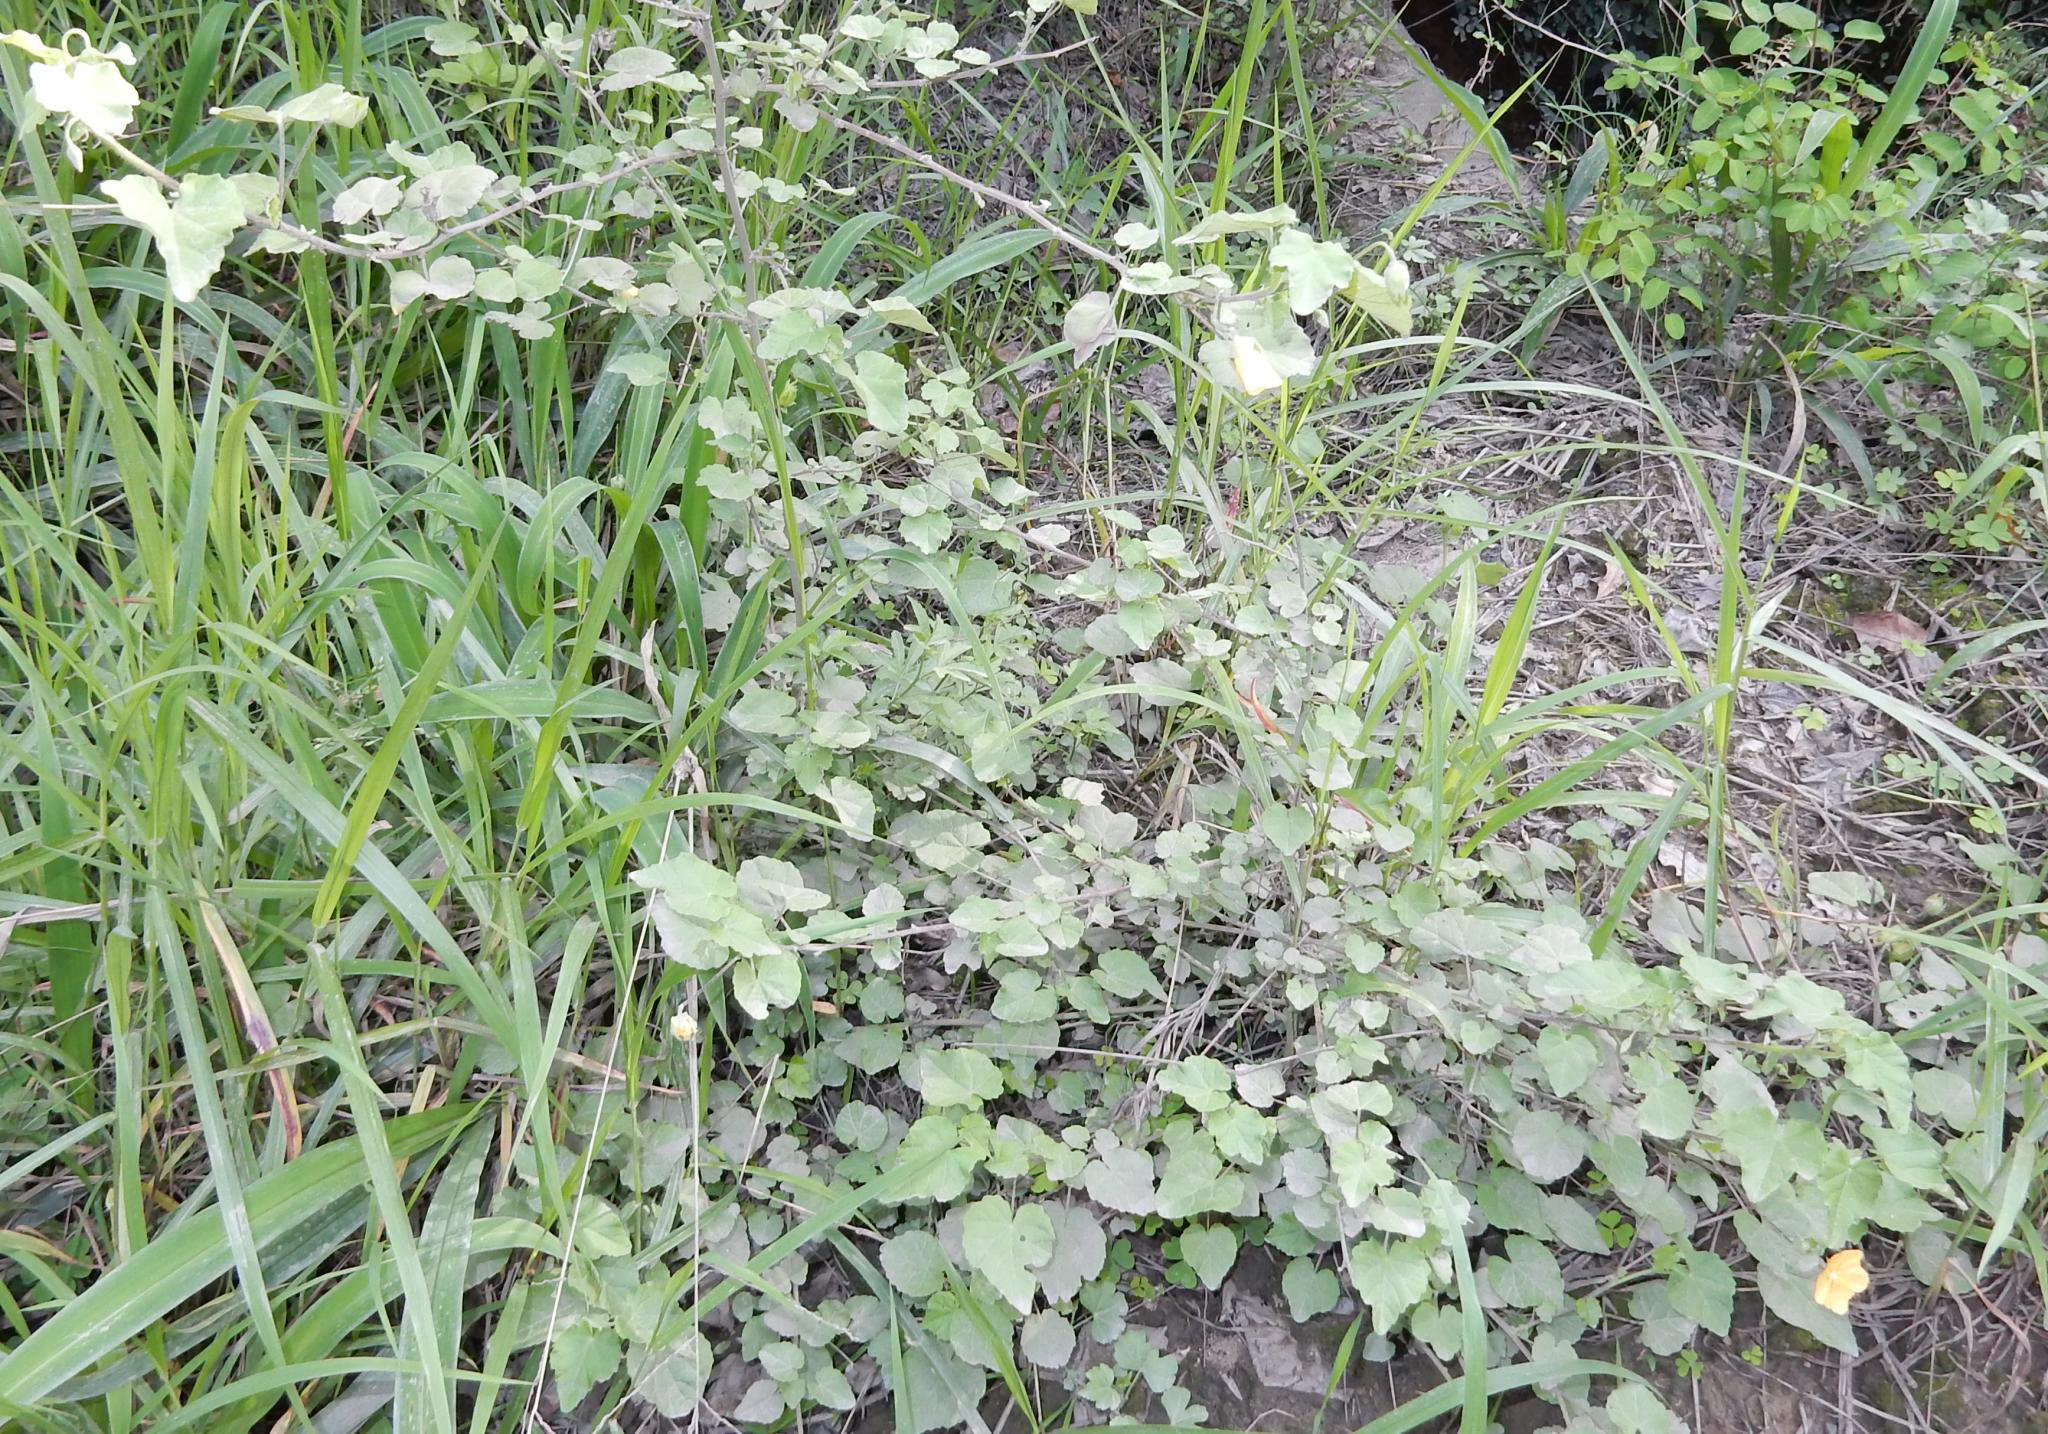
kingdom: Plantae
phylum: Tracheophyta
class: Magnoliopsida
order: Malvales
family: Malvaceae
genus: Abutilon
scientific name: Abutilon sonneratianum
